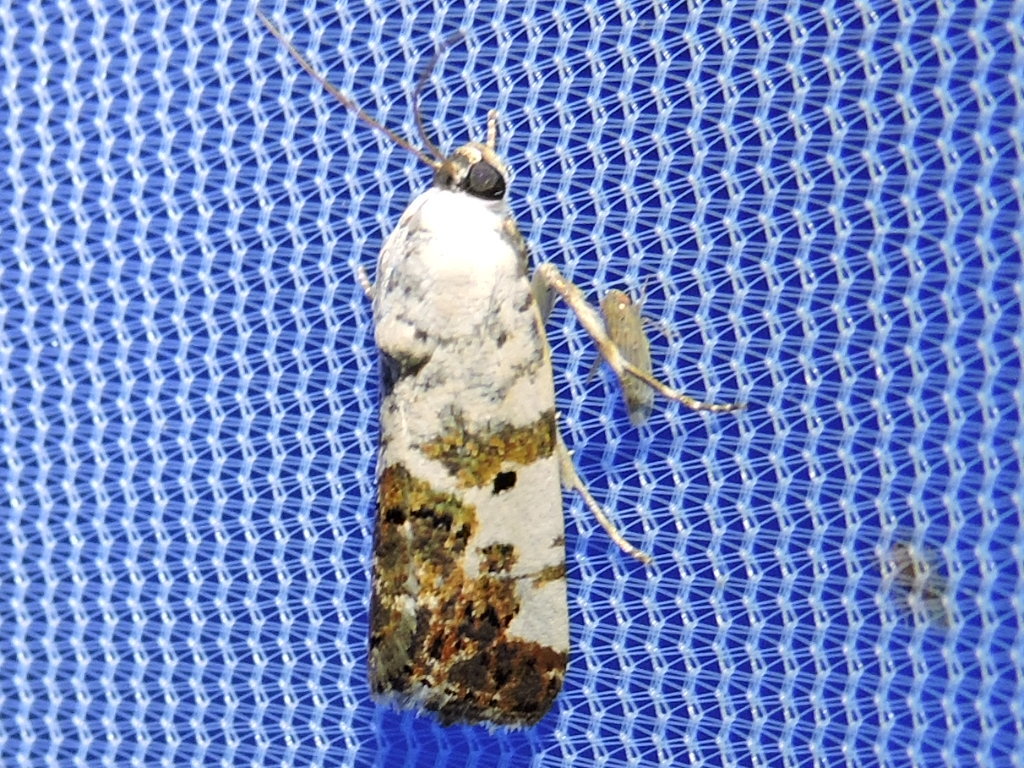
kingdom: Animalia
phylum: Arthropoda
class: Insecta
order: Lepidoptera
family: Noctuidae
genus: Acontia
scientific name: Acontia aprica
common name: Nun
